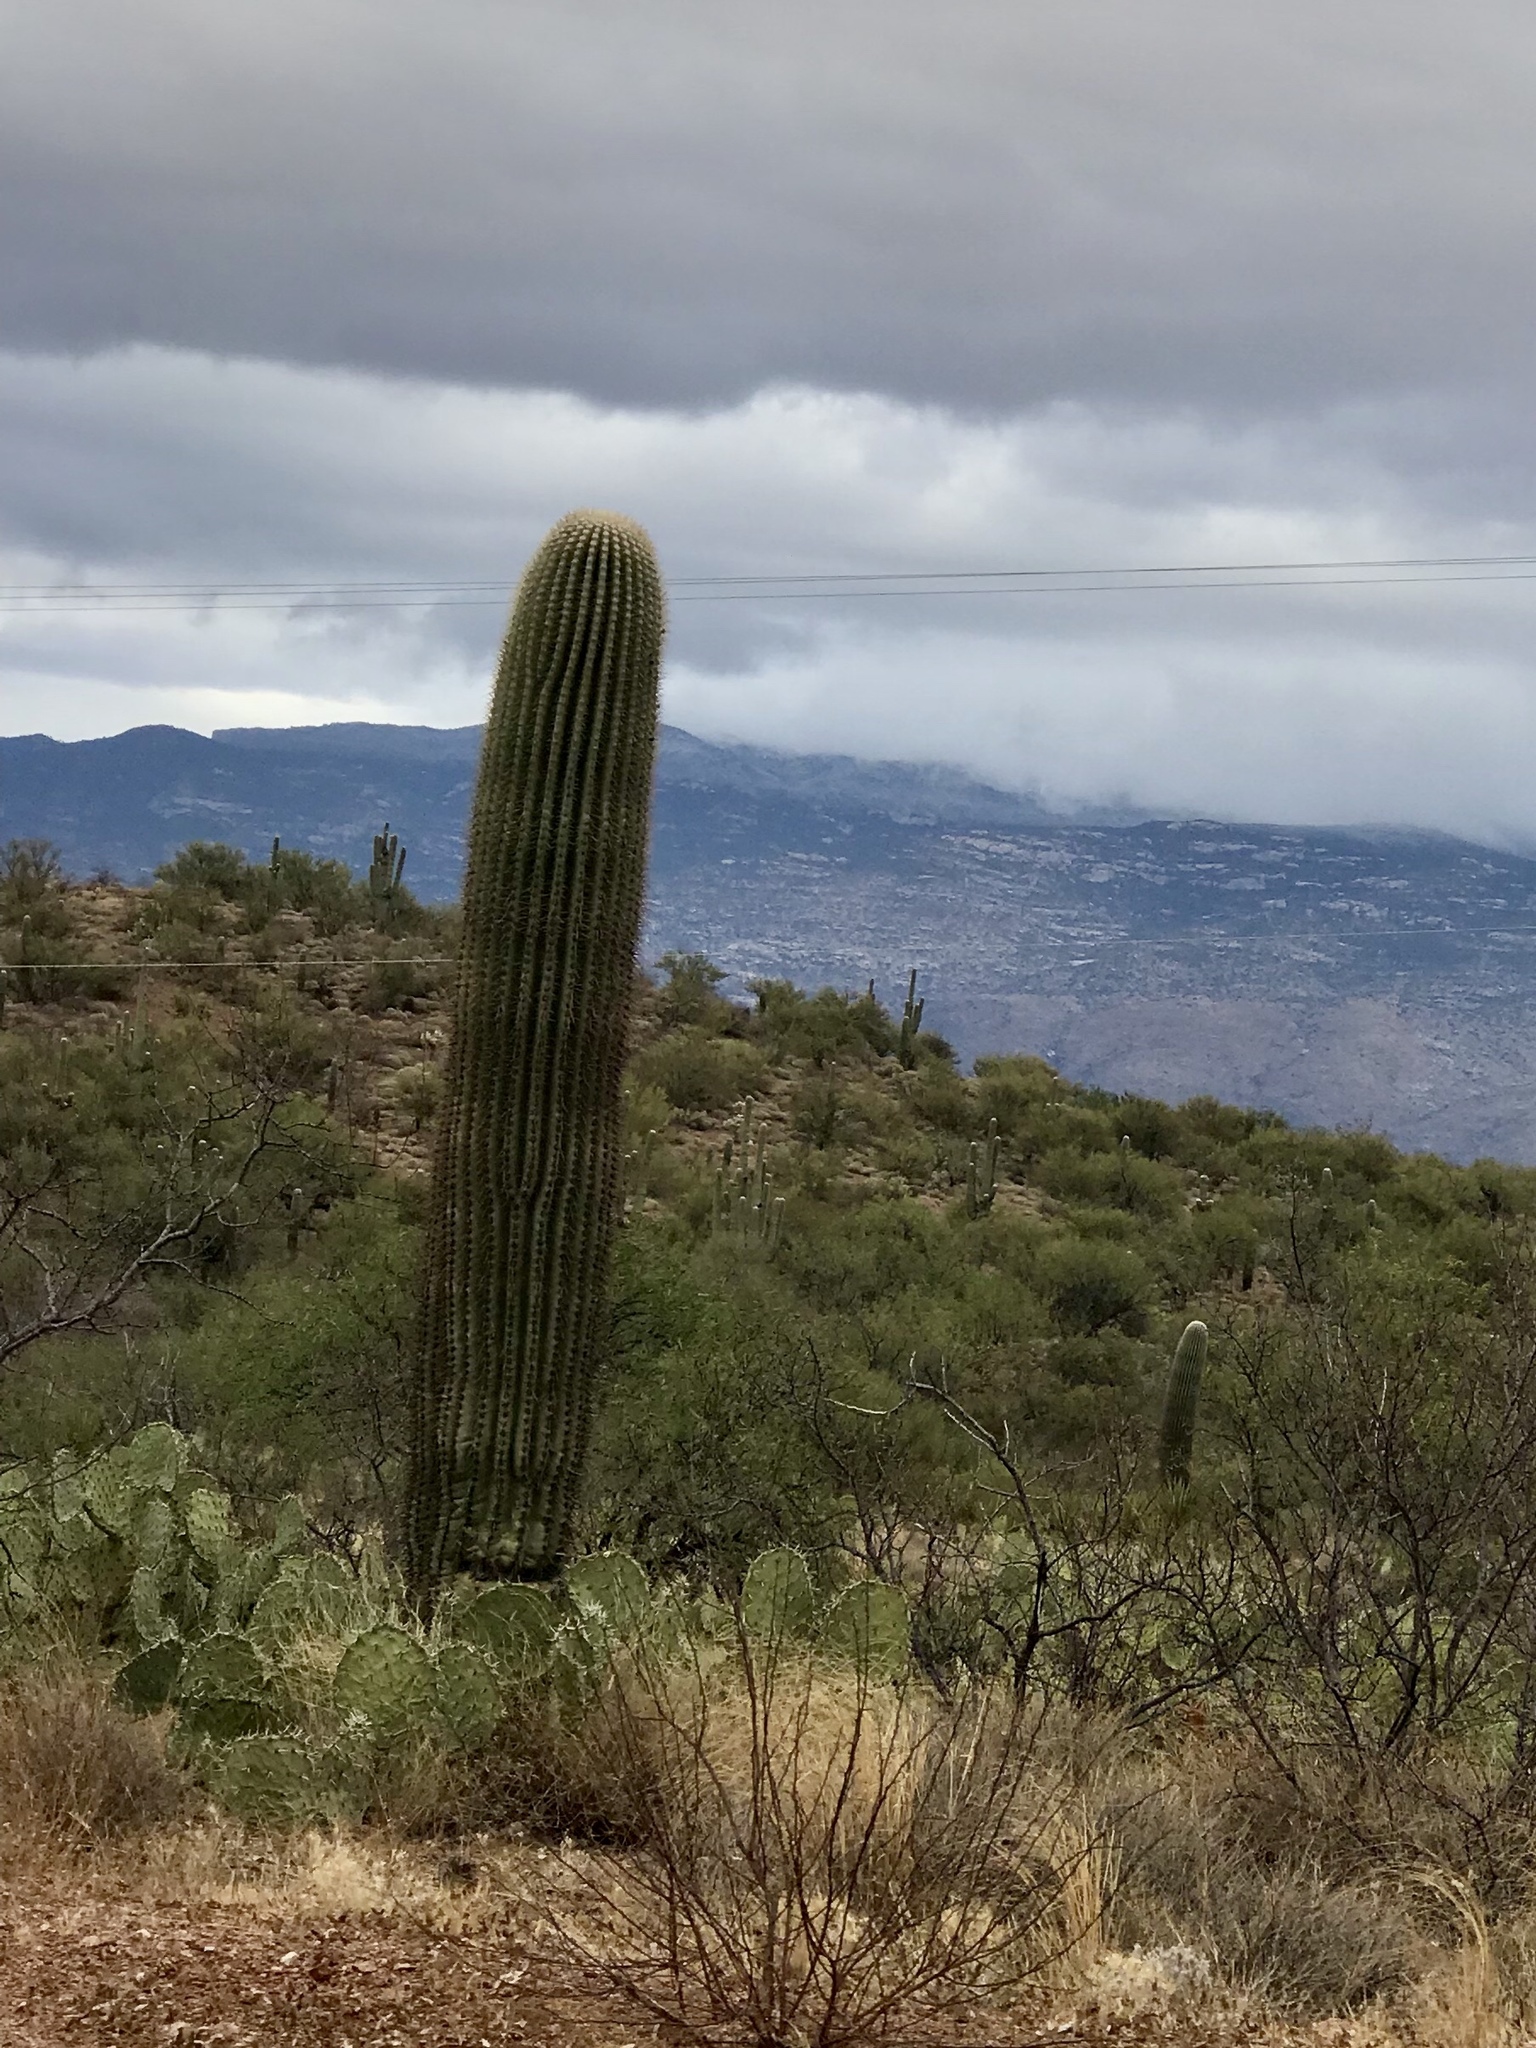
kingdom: Plantae
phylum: Tracheophyta
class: Magnoliopsida
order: Caryophyllales
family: Cactaceae
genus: Carnegiea
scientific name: Carnegiea gigantea
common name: Saguaro
